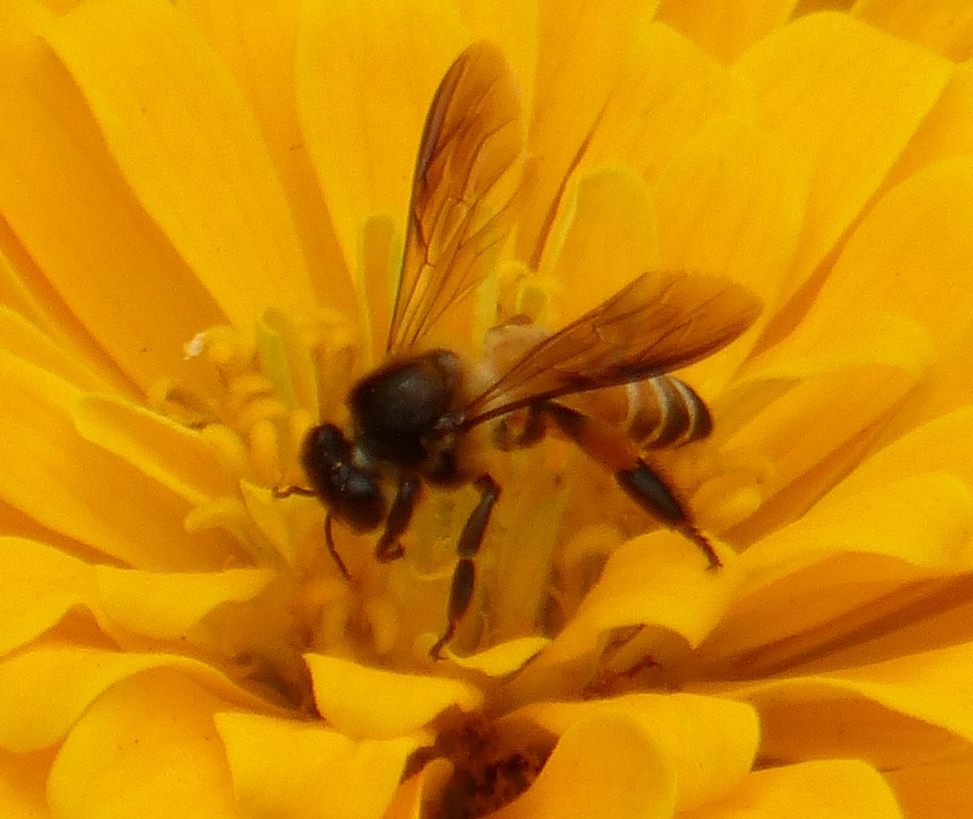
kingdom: Animalia
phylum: Arthropoda
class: Insecta
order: Hymenoptera
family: Apidae
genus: Apis
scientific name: Apis dorsata
